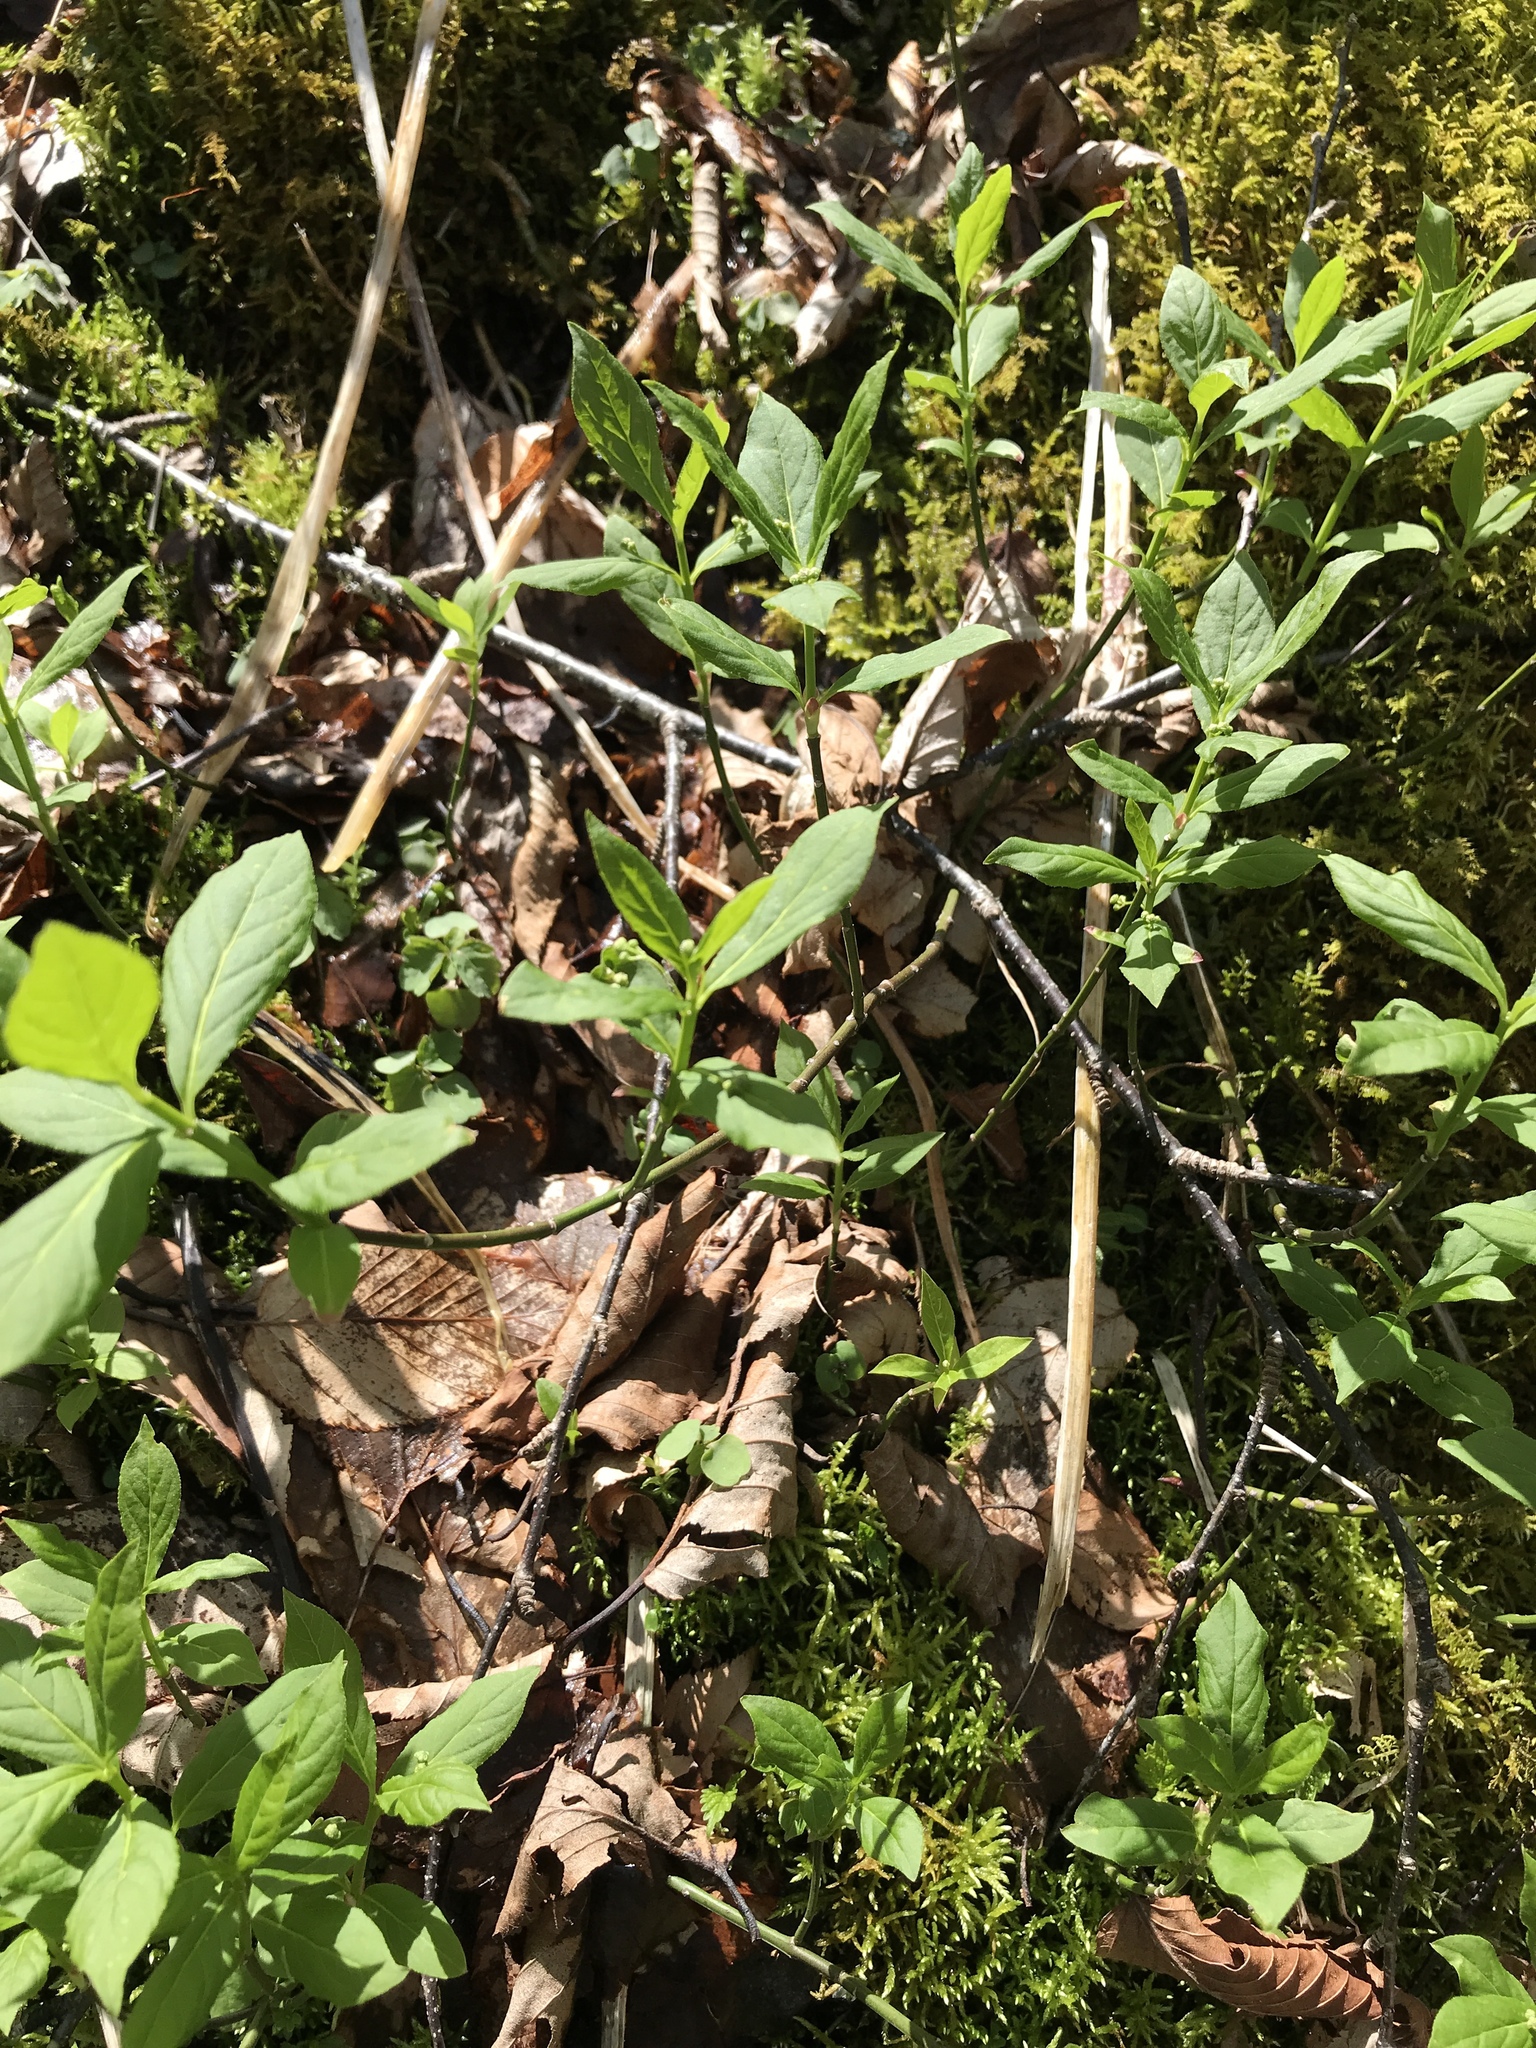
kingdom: Plantae
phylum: Tracheophyta
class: Magnoliopsida
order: Celastrales
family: Celastraceae
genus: Euonymus
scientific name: Euonymus obovatus
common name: Running strawberry-bush
